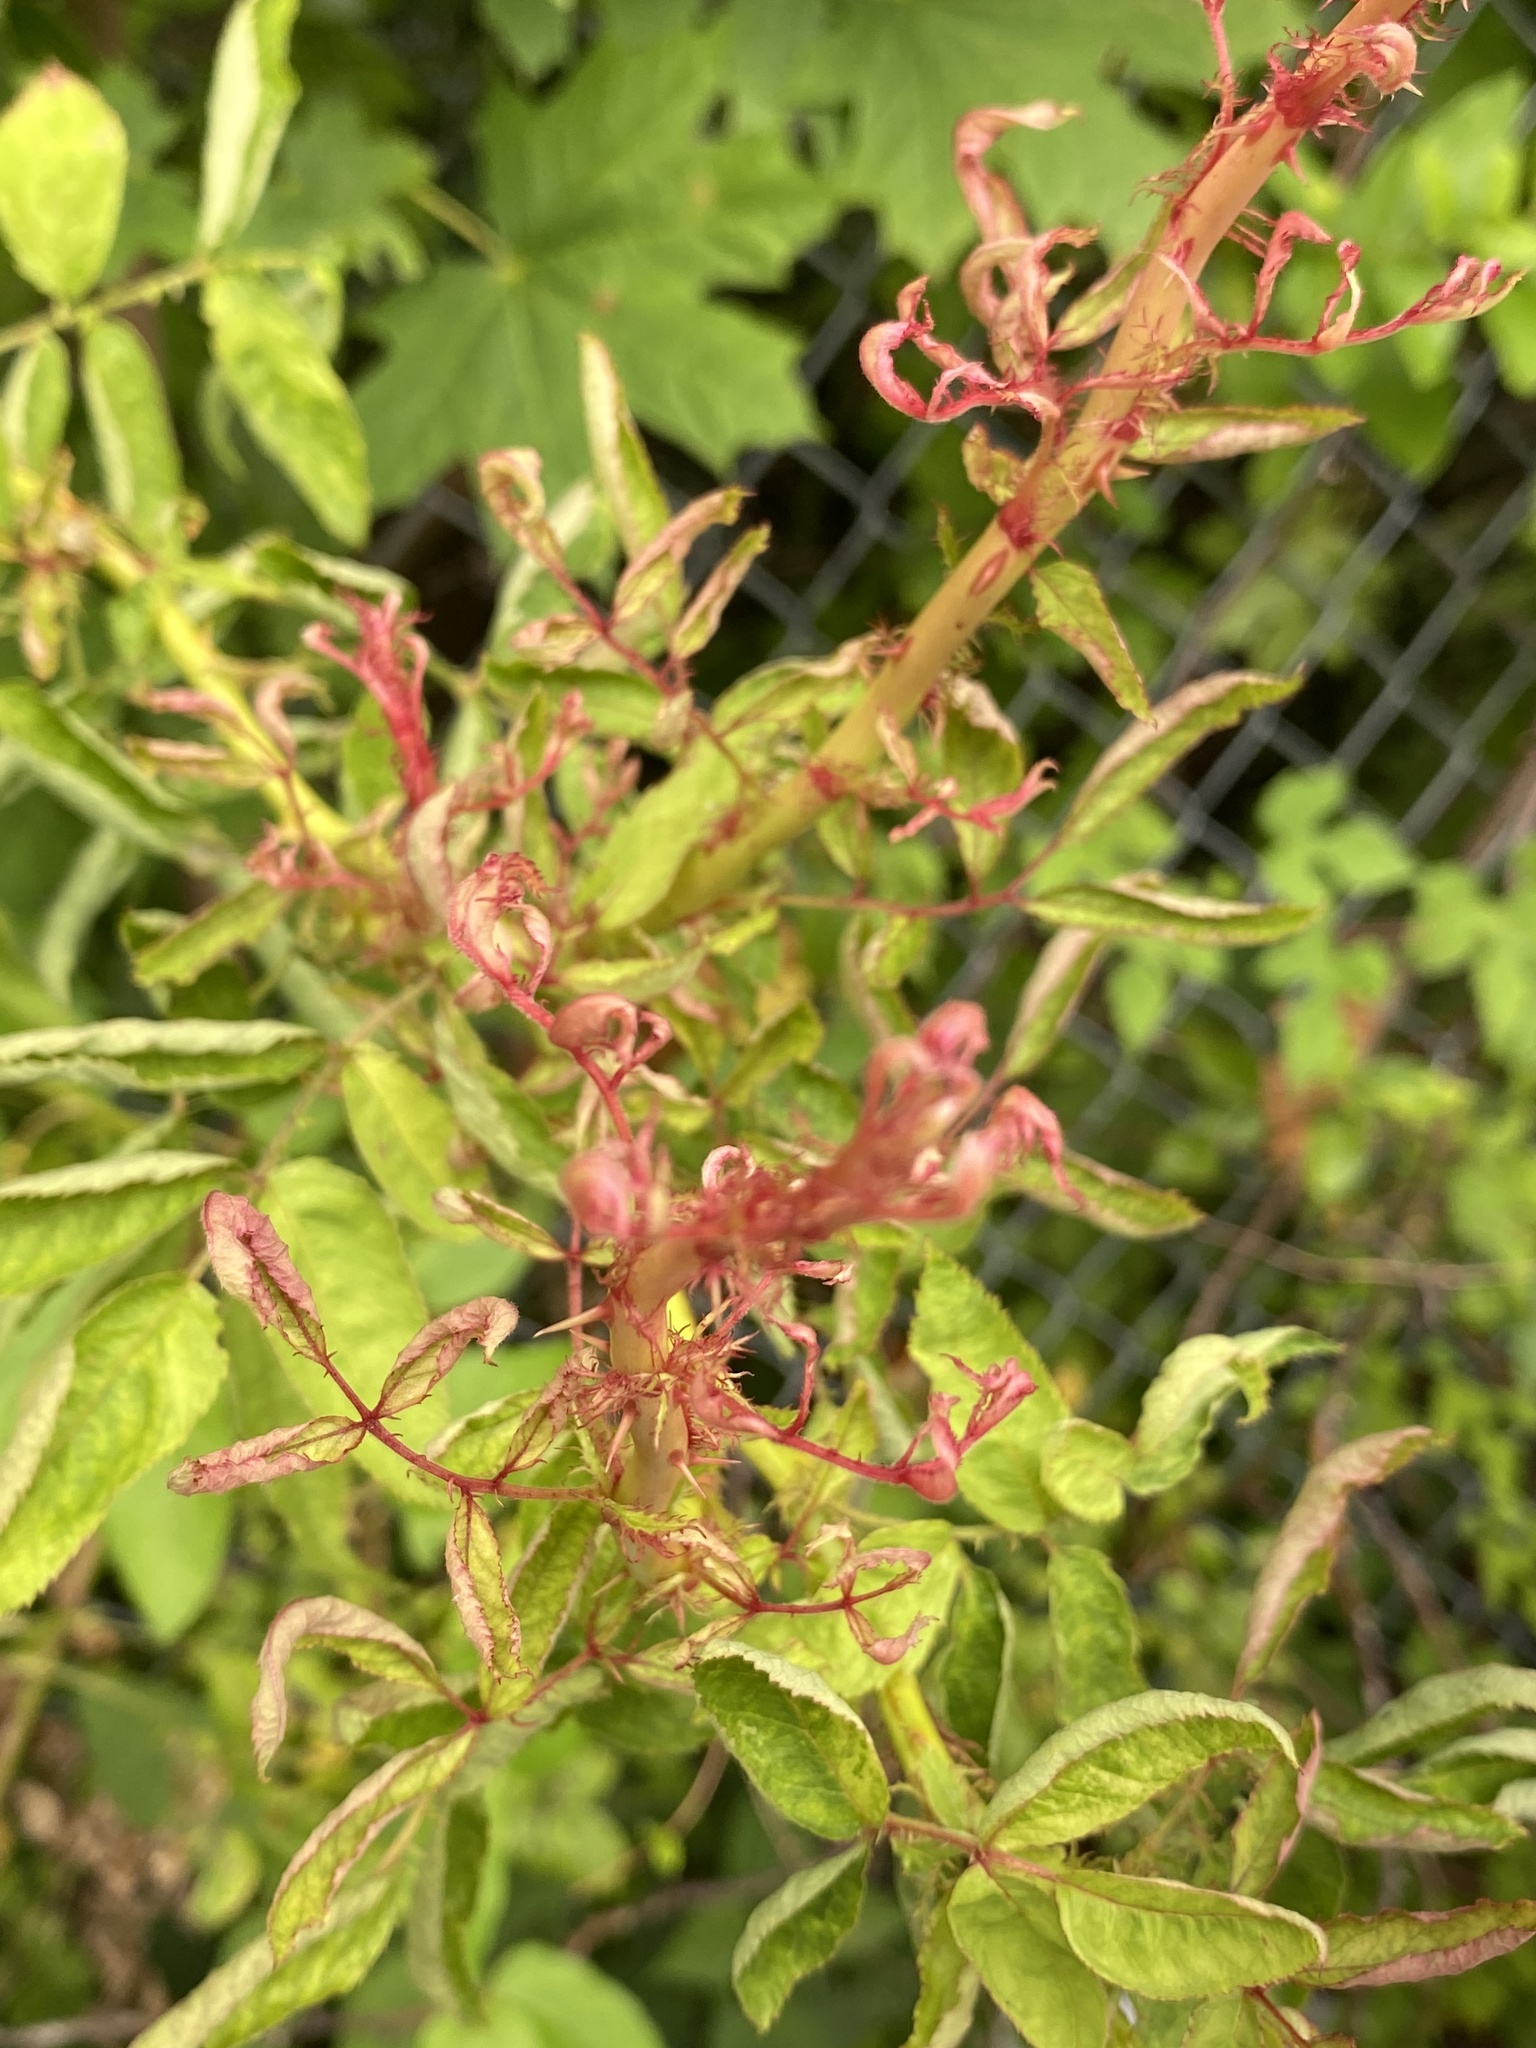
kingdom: Viruses
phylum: Negarnaviricota
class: Ellioviricetes
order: Bunyavirales
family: Fimoviridae
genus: Emaravirus
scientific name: Emaravirus rosae
